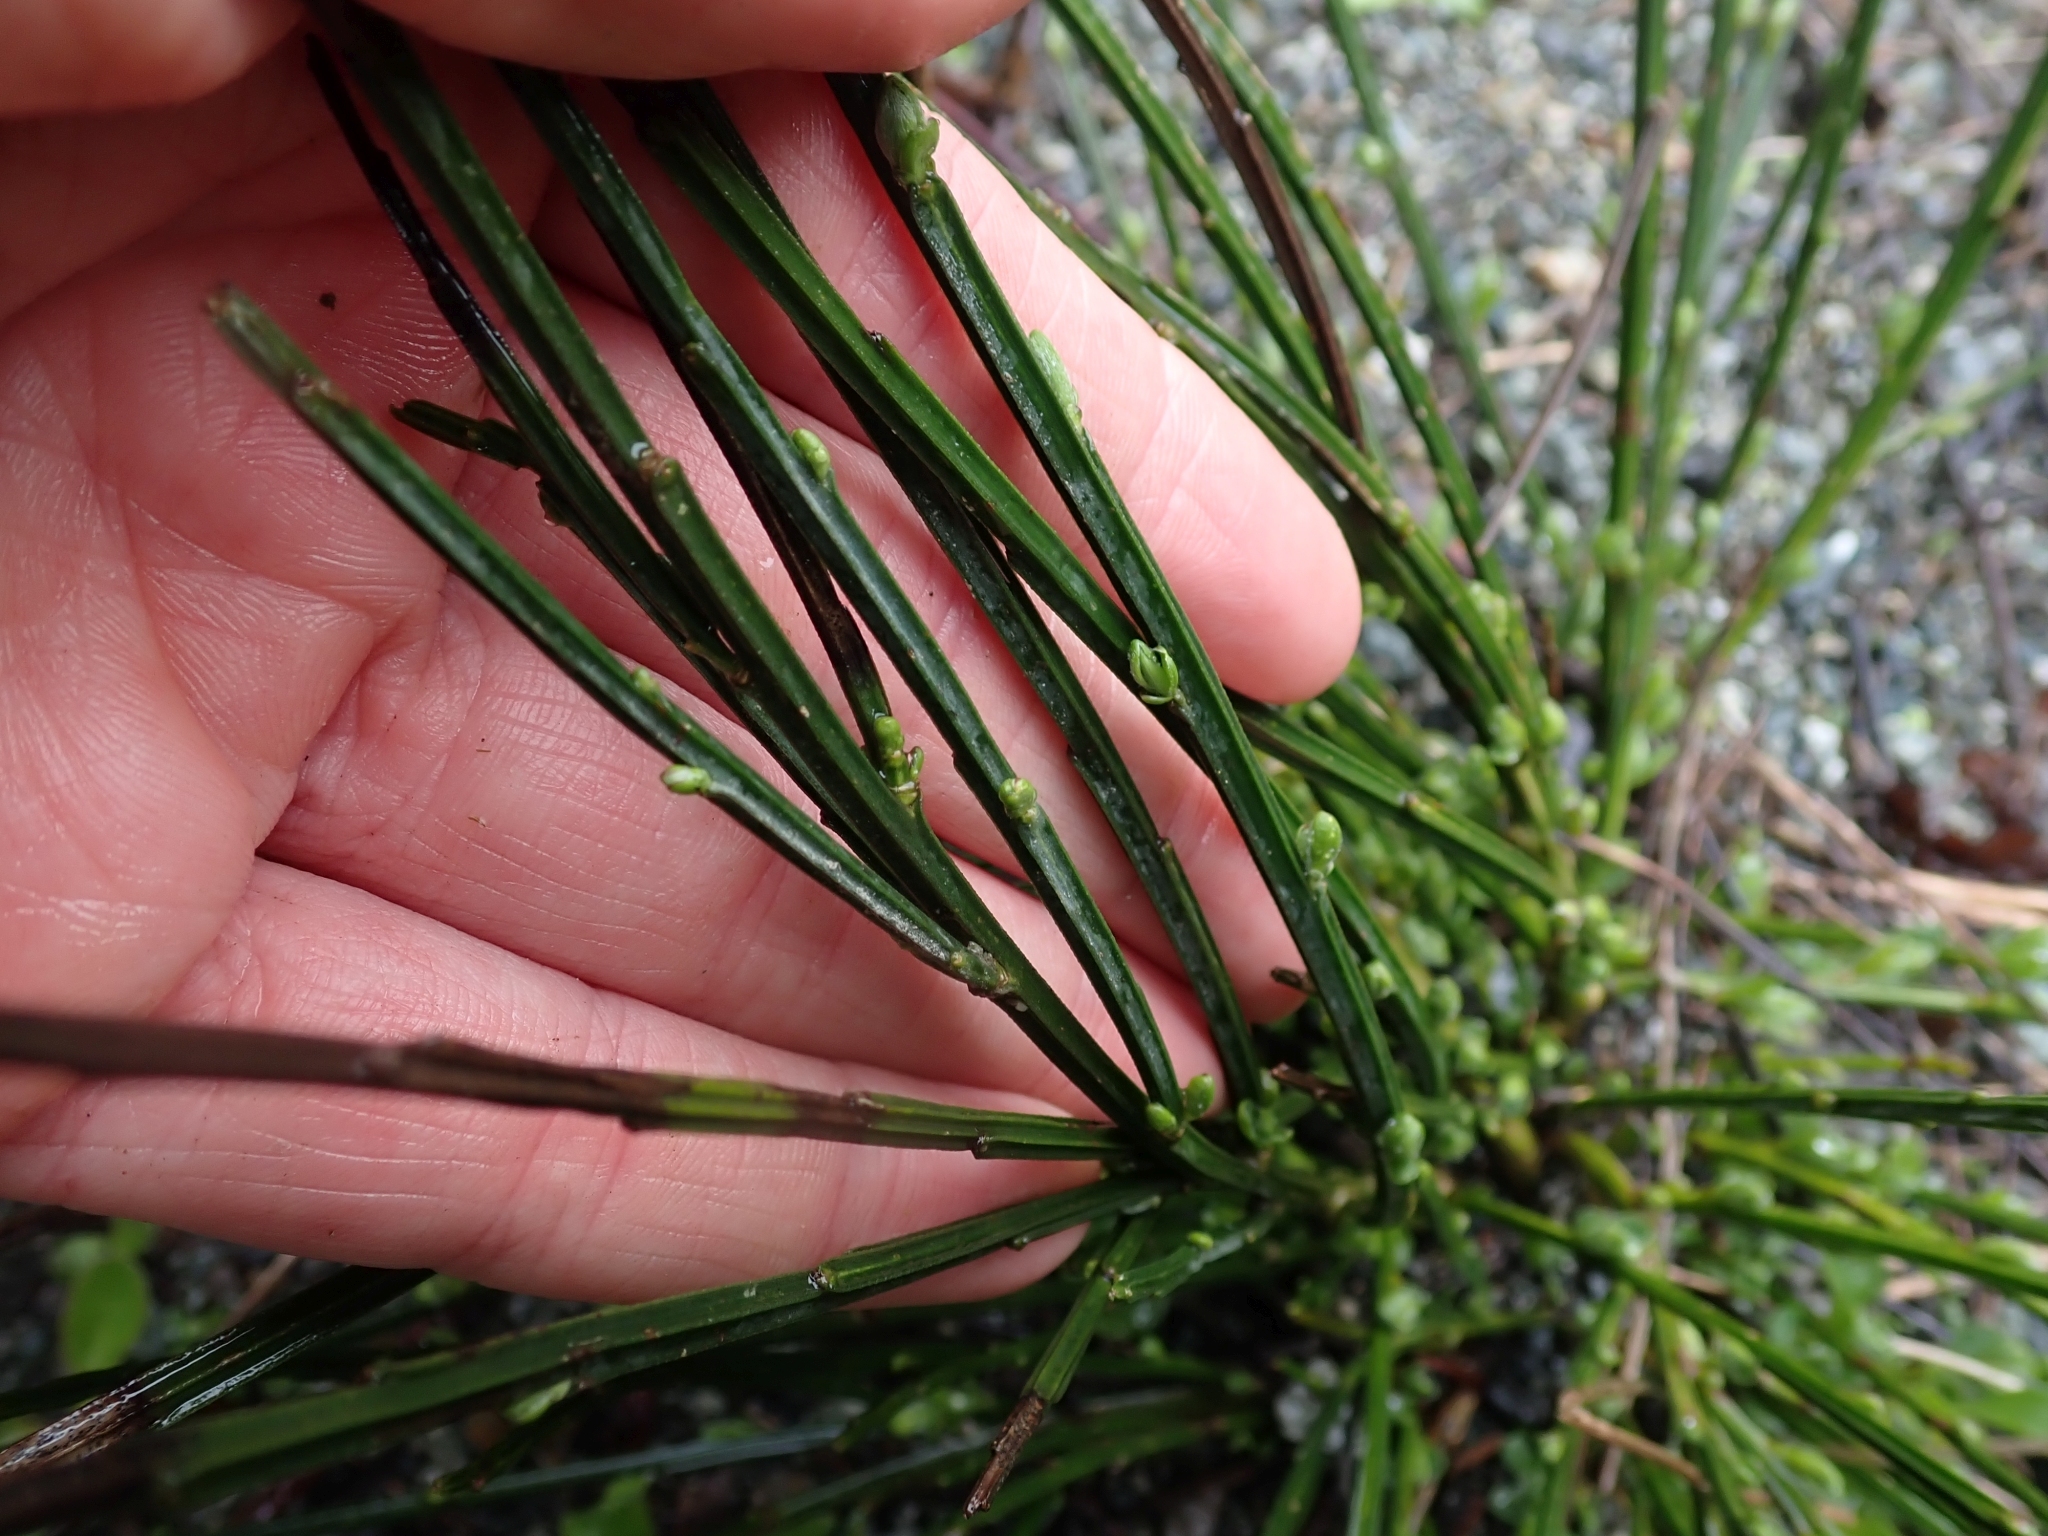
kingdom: Plantae
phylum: Tracheophyta
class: Magnoliopsida
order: Fabales
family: Fabaceae
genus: Cytisus
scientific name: Cytisus scoparius
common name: Scotch broom
